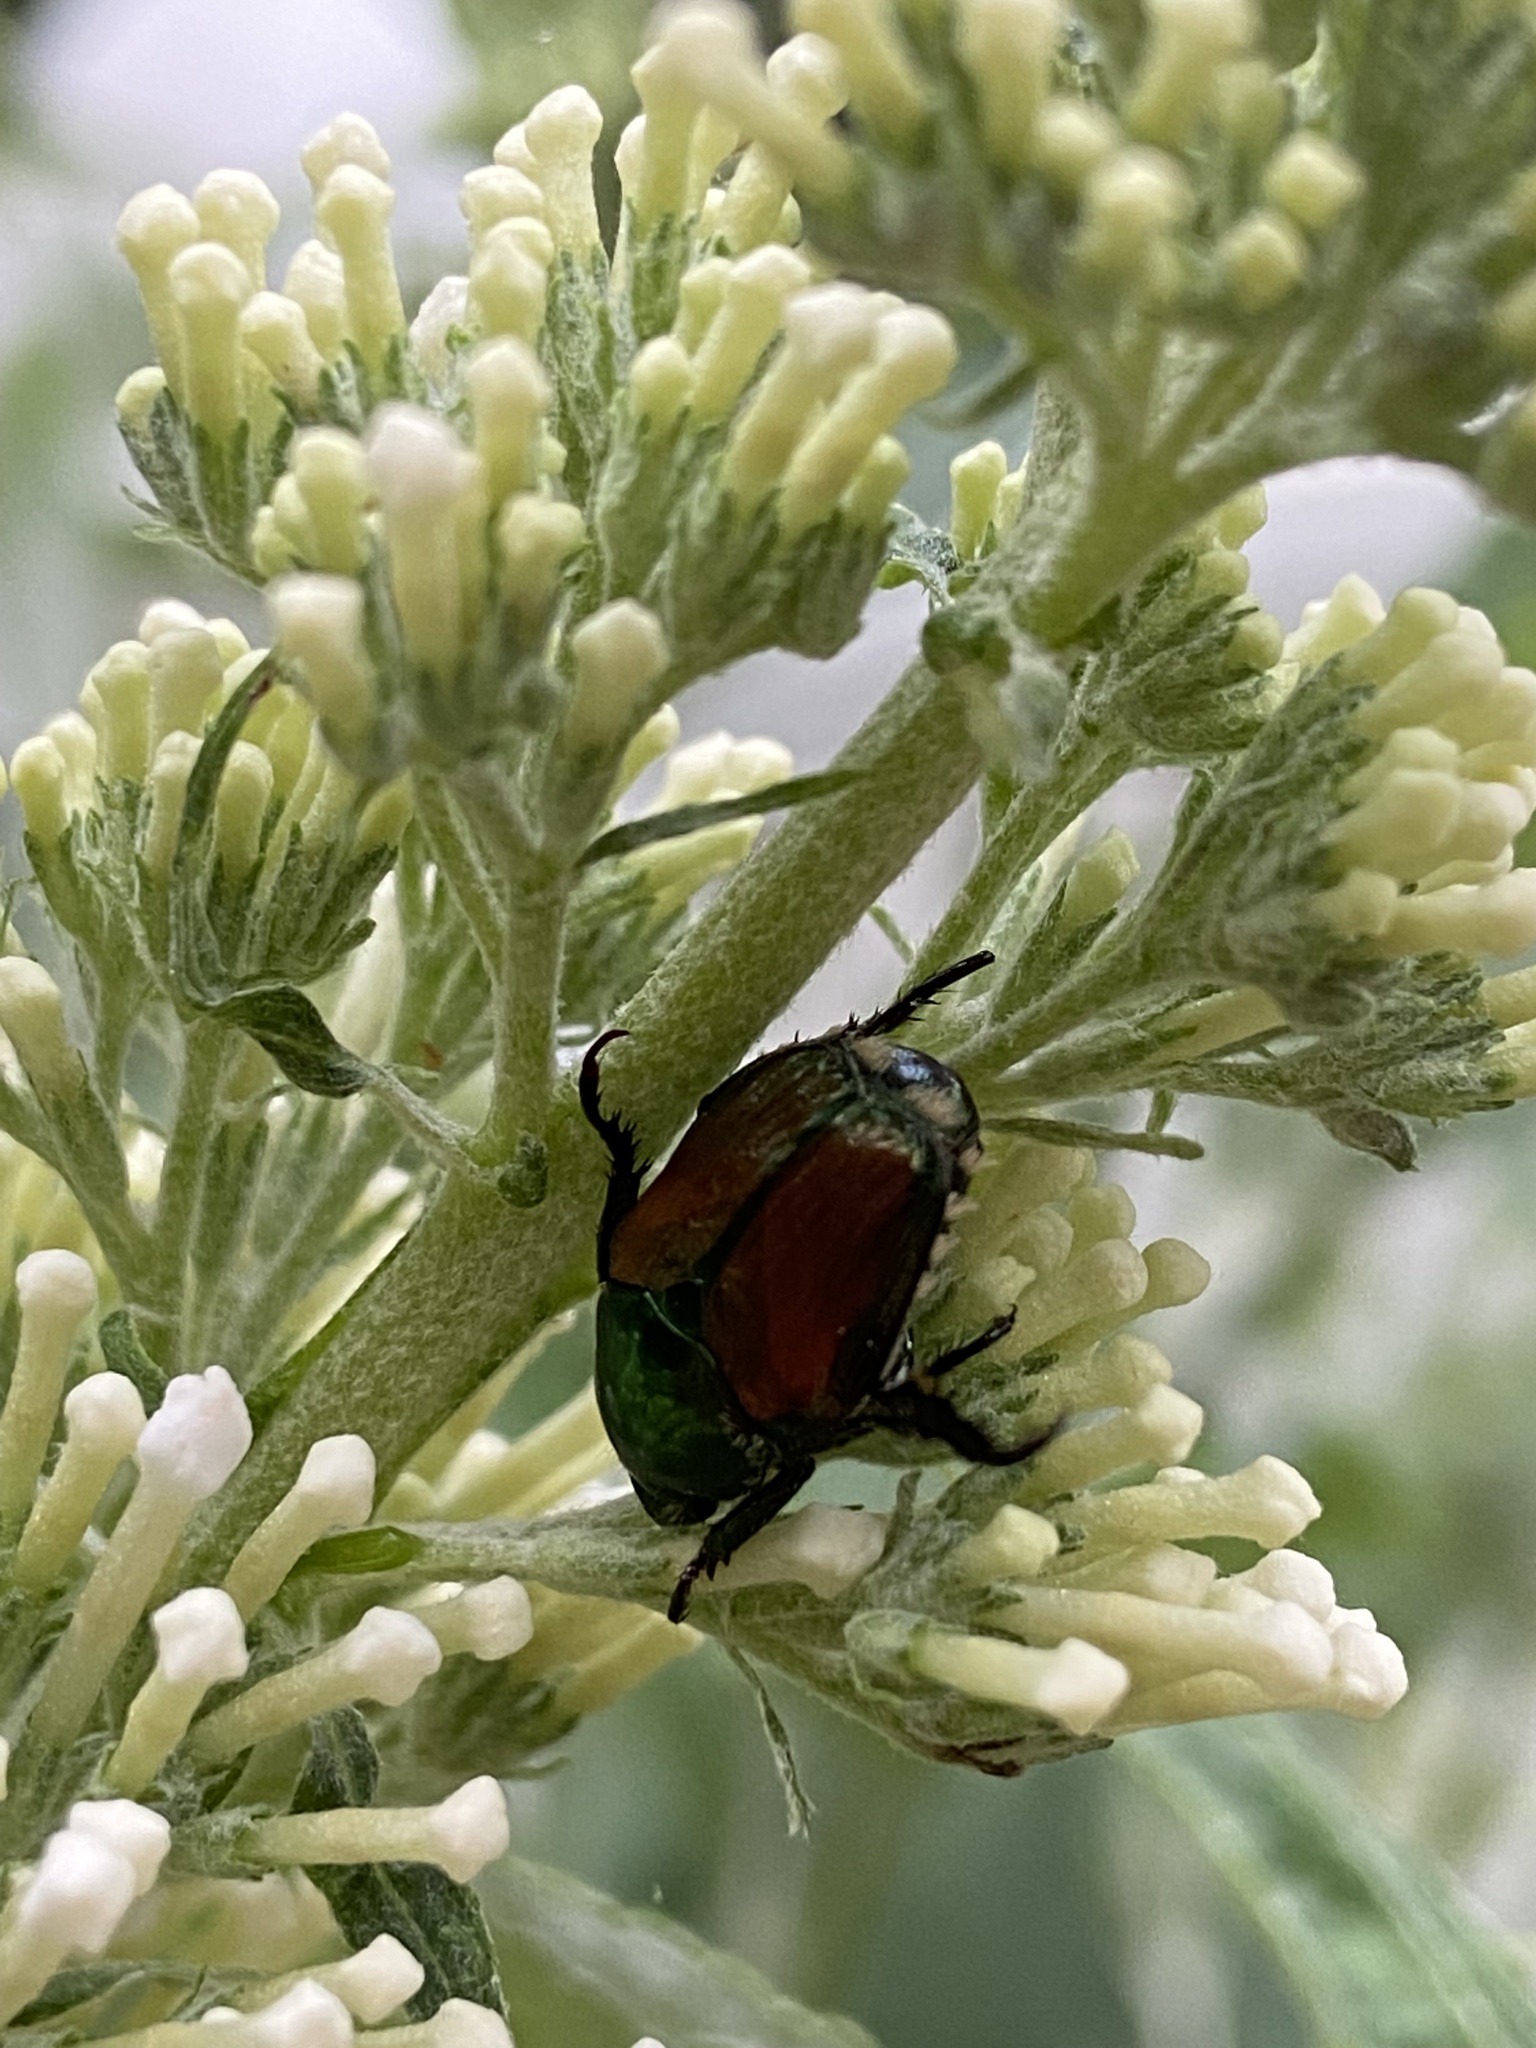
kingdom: Animalia
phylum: Arthropoda
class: Insecta
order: Coleoptera
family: Scarabaeidae
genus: Popillia
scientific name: Popillia japonica
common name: Japanese beetle
